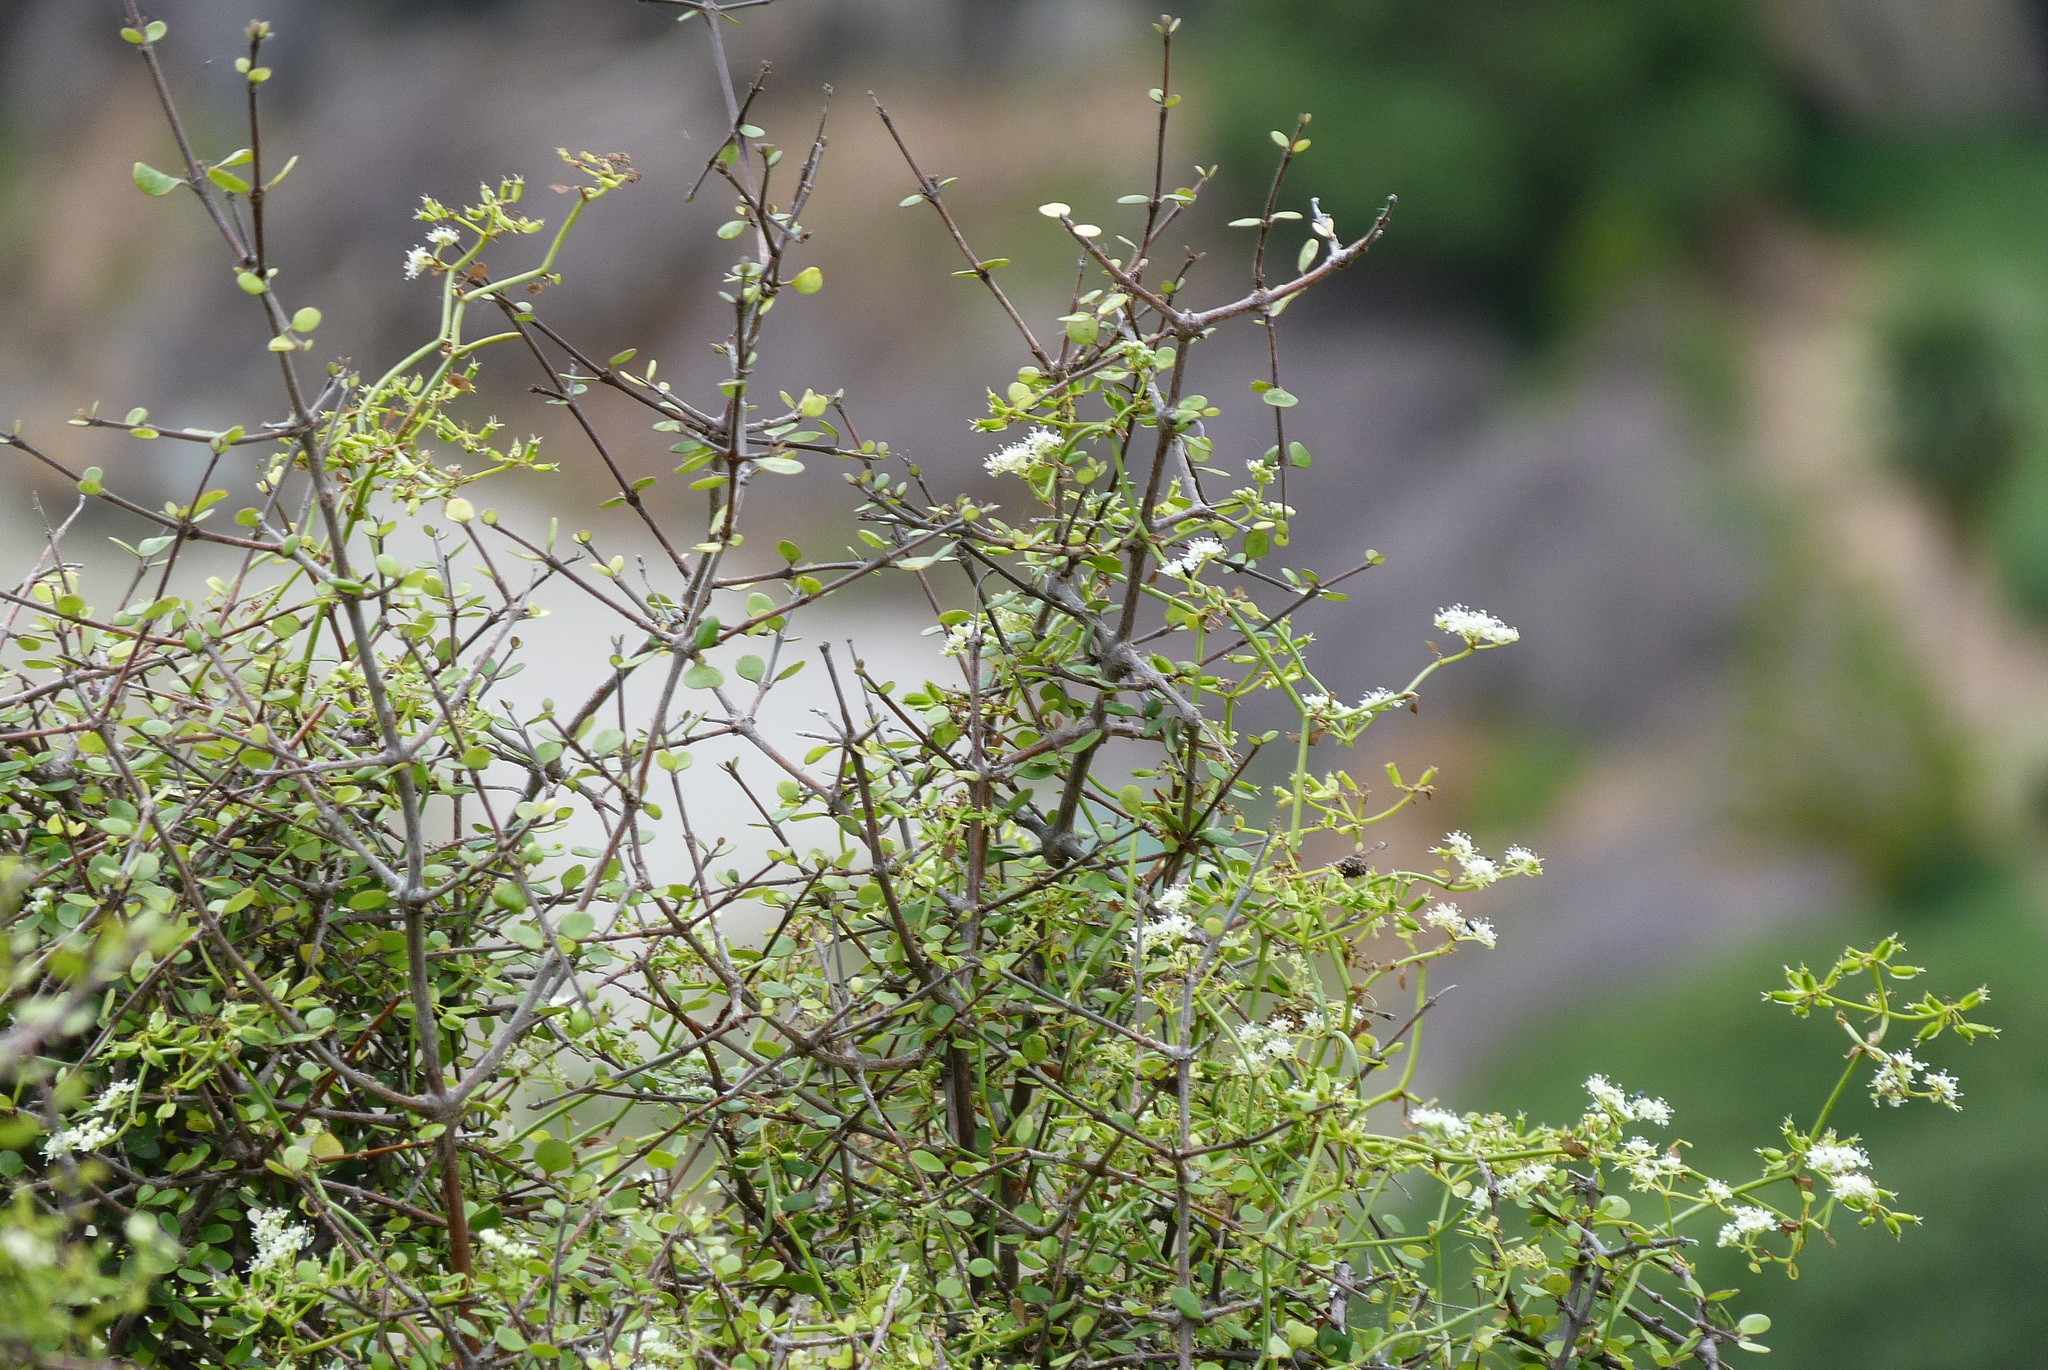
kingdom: Plantae
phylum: Tracheophyta
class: Magnoliopsida
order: Apiales
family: Apiaceae
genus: Scandia
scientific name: Scandia geniculata
